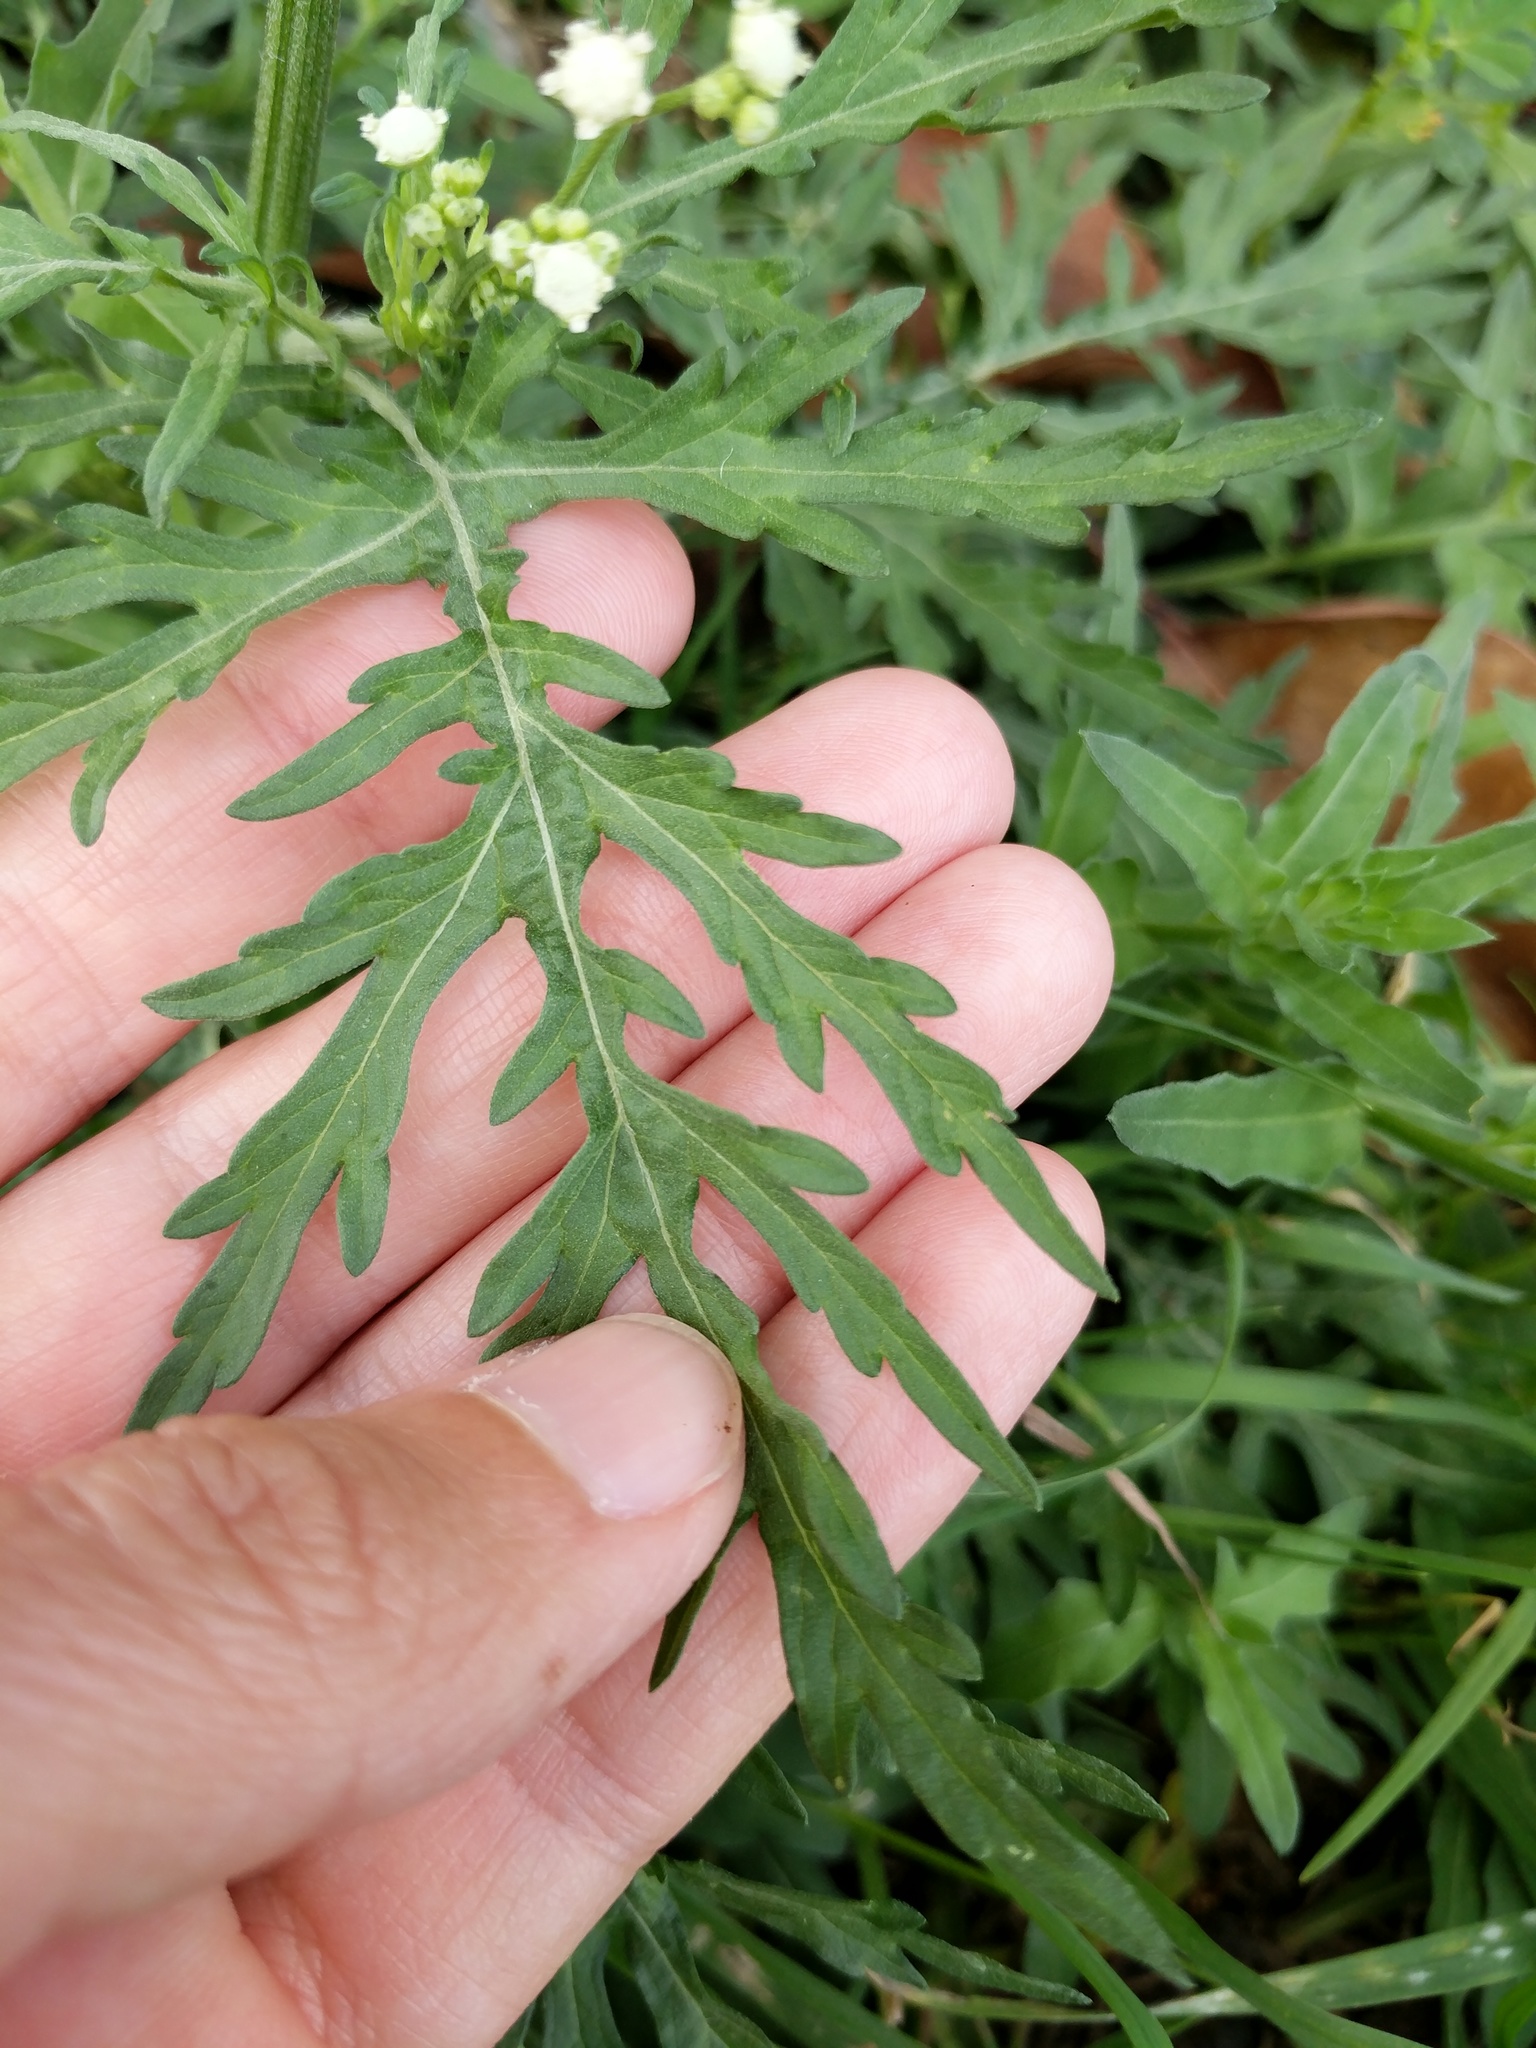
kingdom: Plantae
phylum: Tracheophyta
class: Magnoliopsida
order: Asterales
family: Asteraceae
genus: Parthenium
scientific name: Parthenium hysterophorus
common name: Santa maria feverfew
